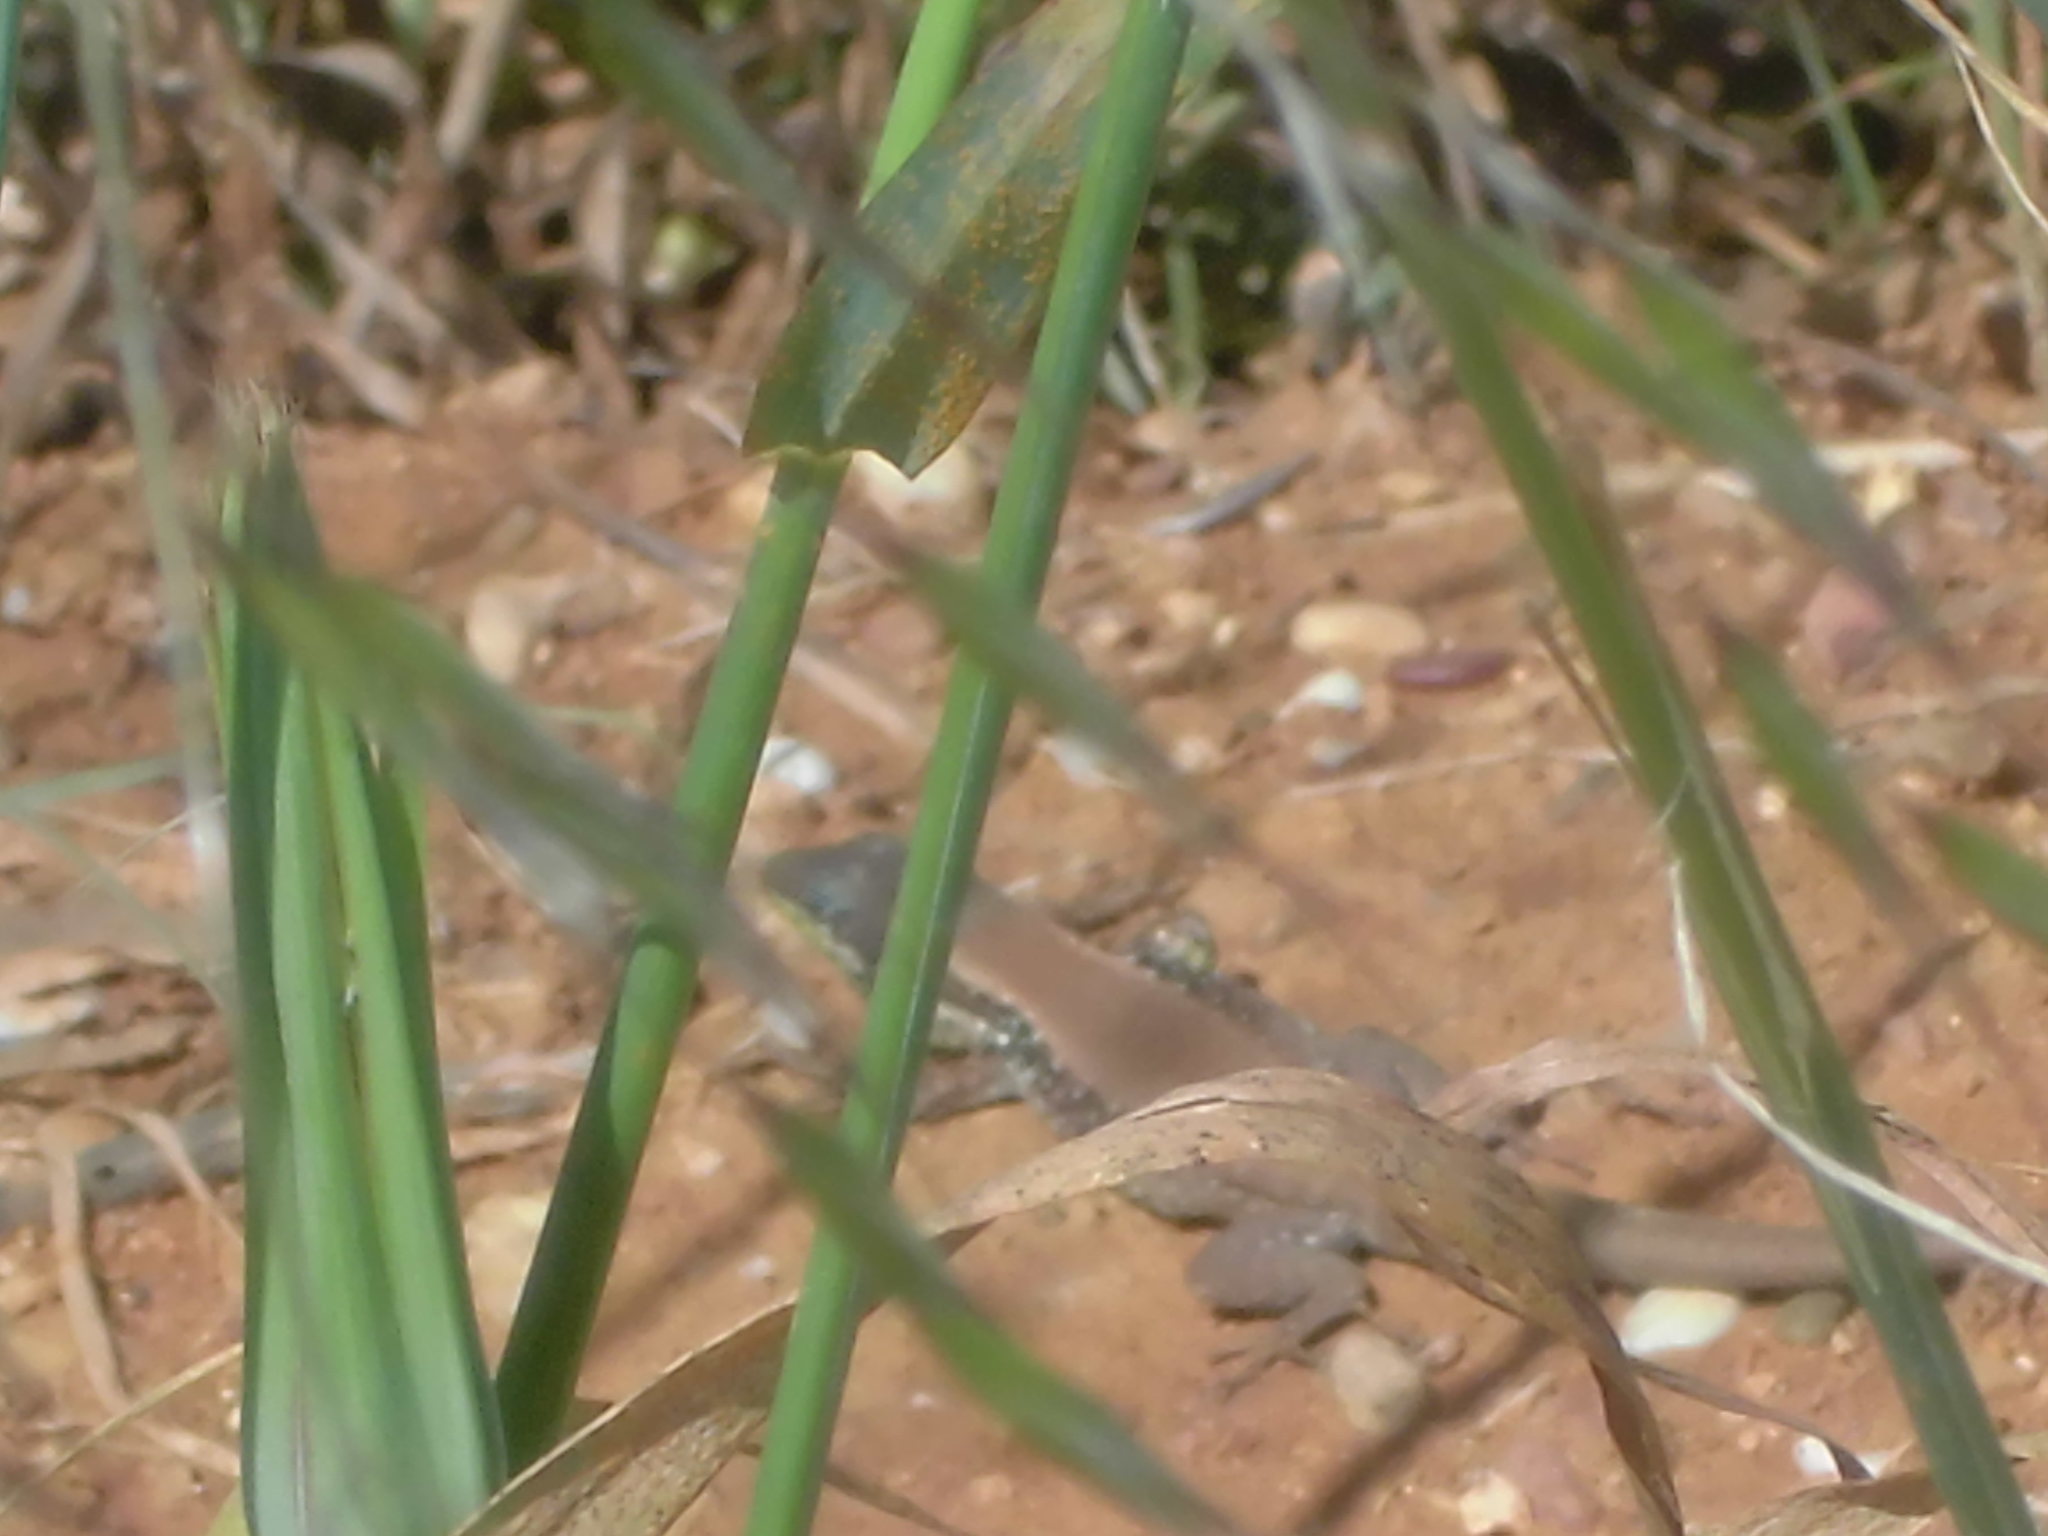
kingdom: Animalia
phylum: Chordata
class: Squamata
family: Lacertidae
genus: Phoenicolacerta
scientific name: Phoenicolacerta laevis
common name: Lebanon lizard
